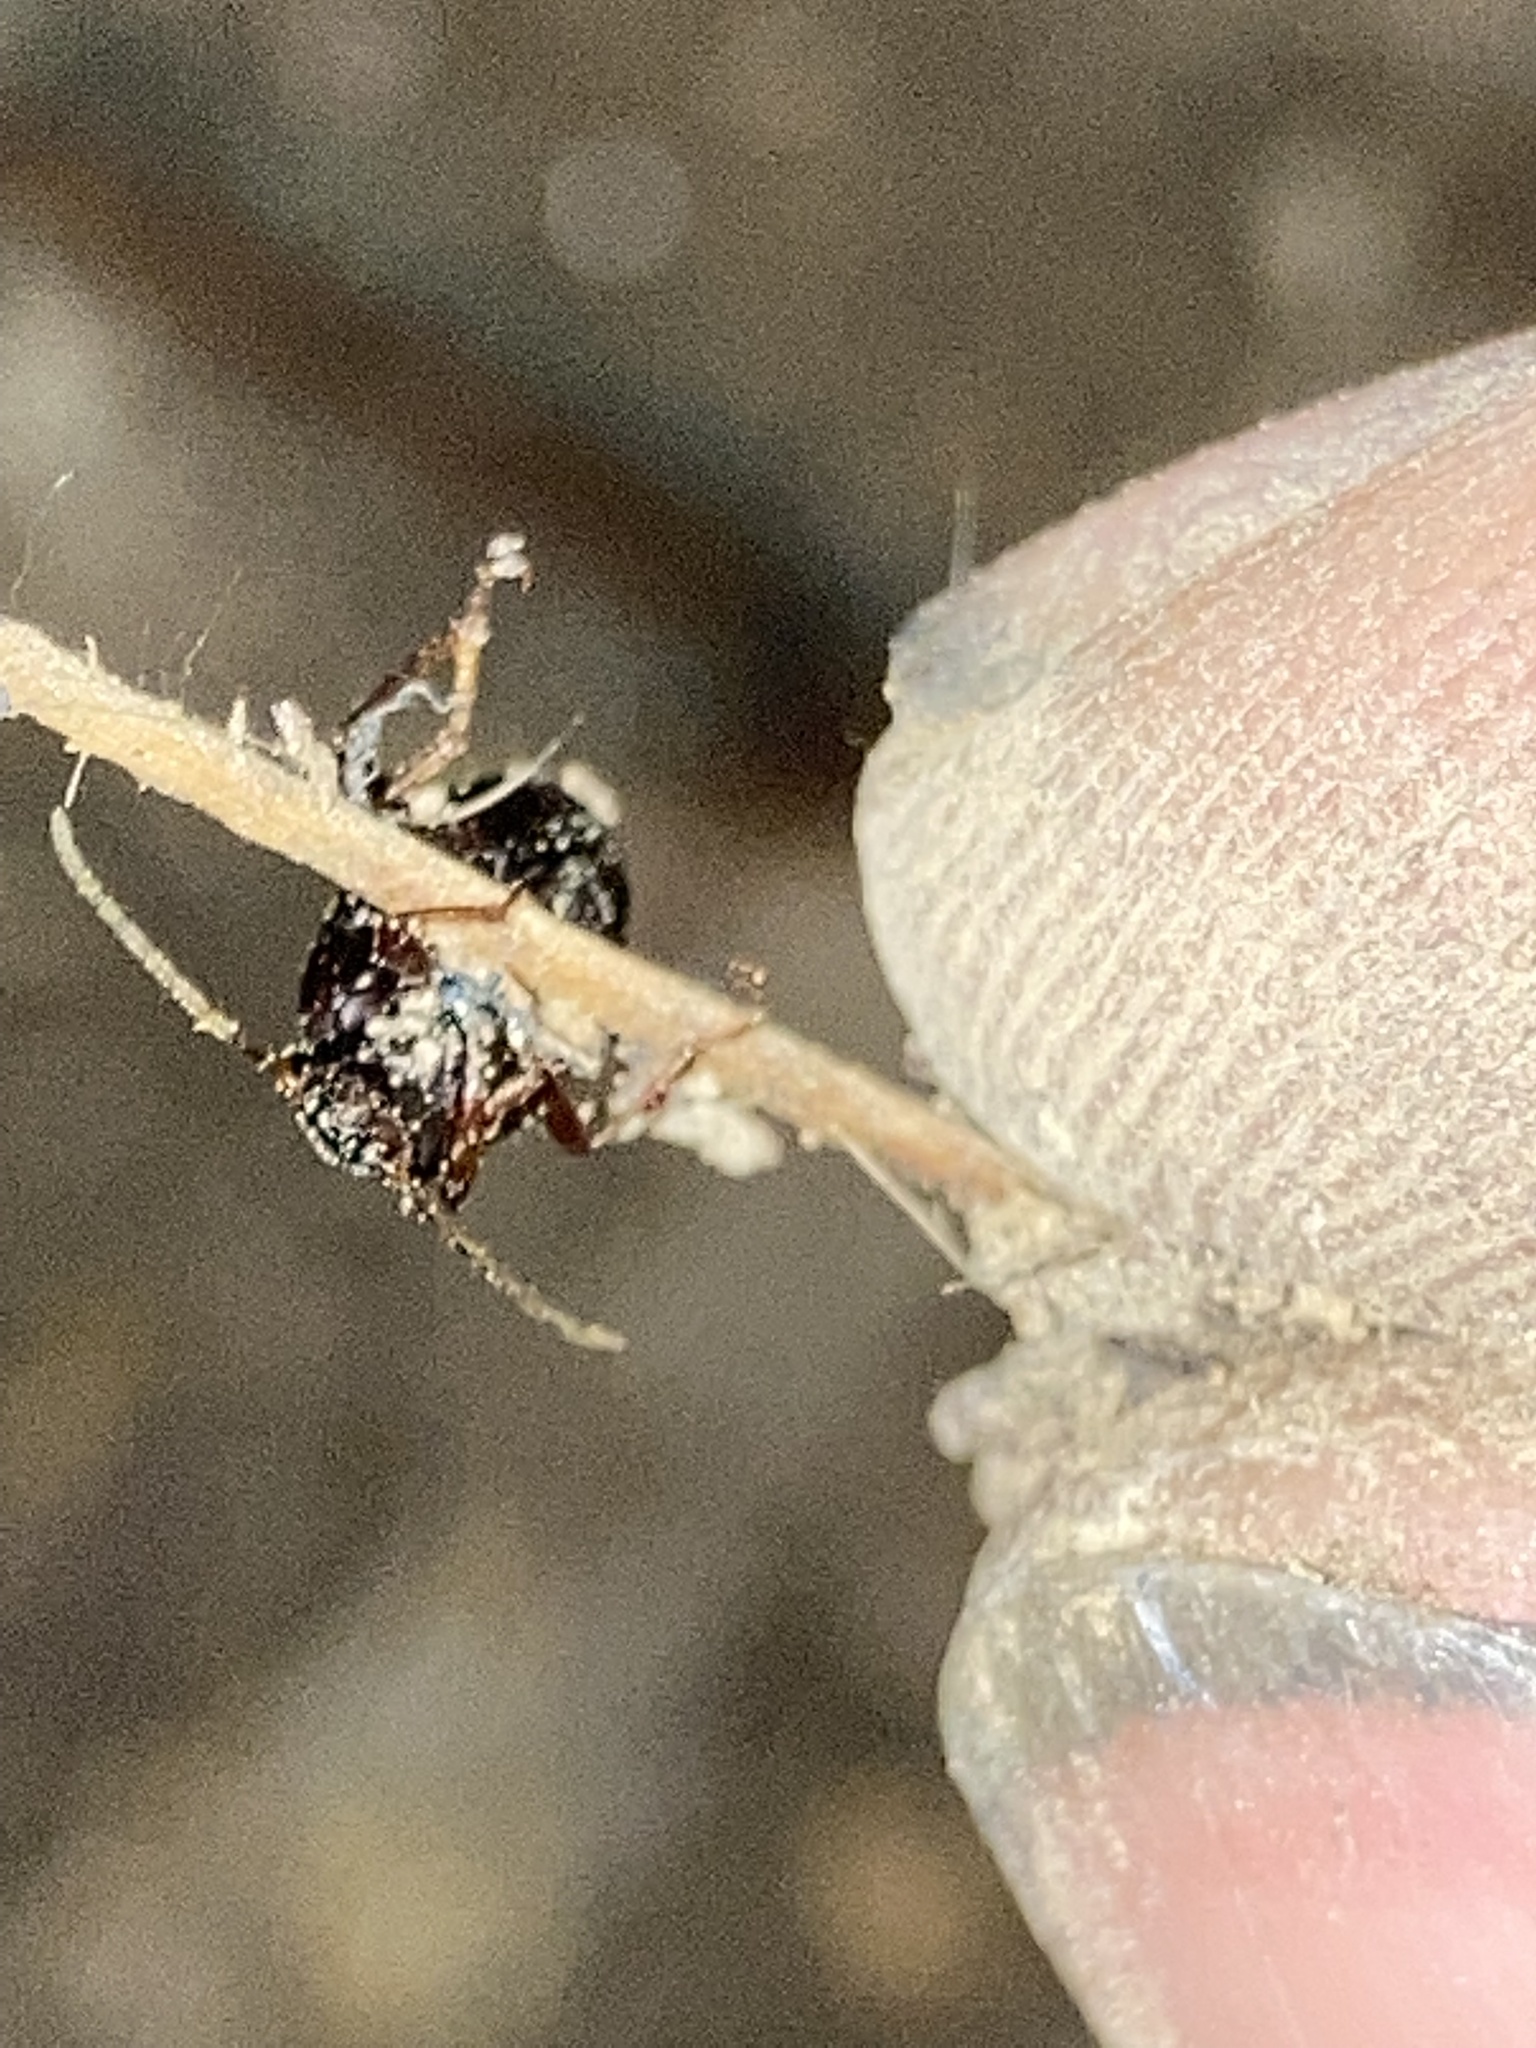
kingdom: Animalia
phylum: Arthropoda
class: Insecta
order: Coleoptera
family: Carabidae
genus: Agonum
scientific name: Agonum punctiforme
